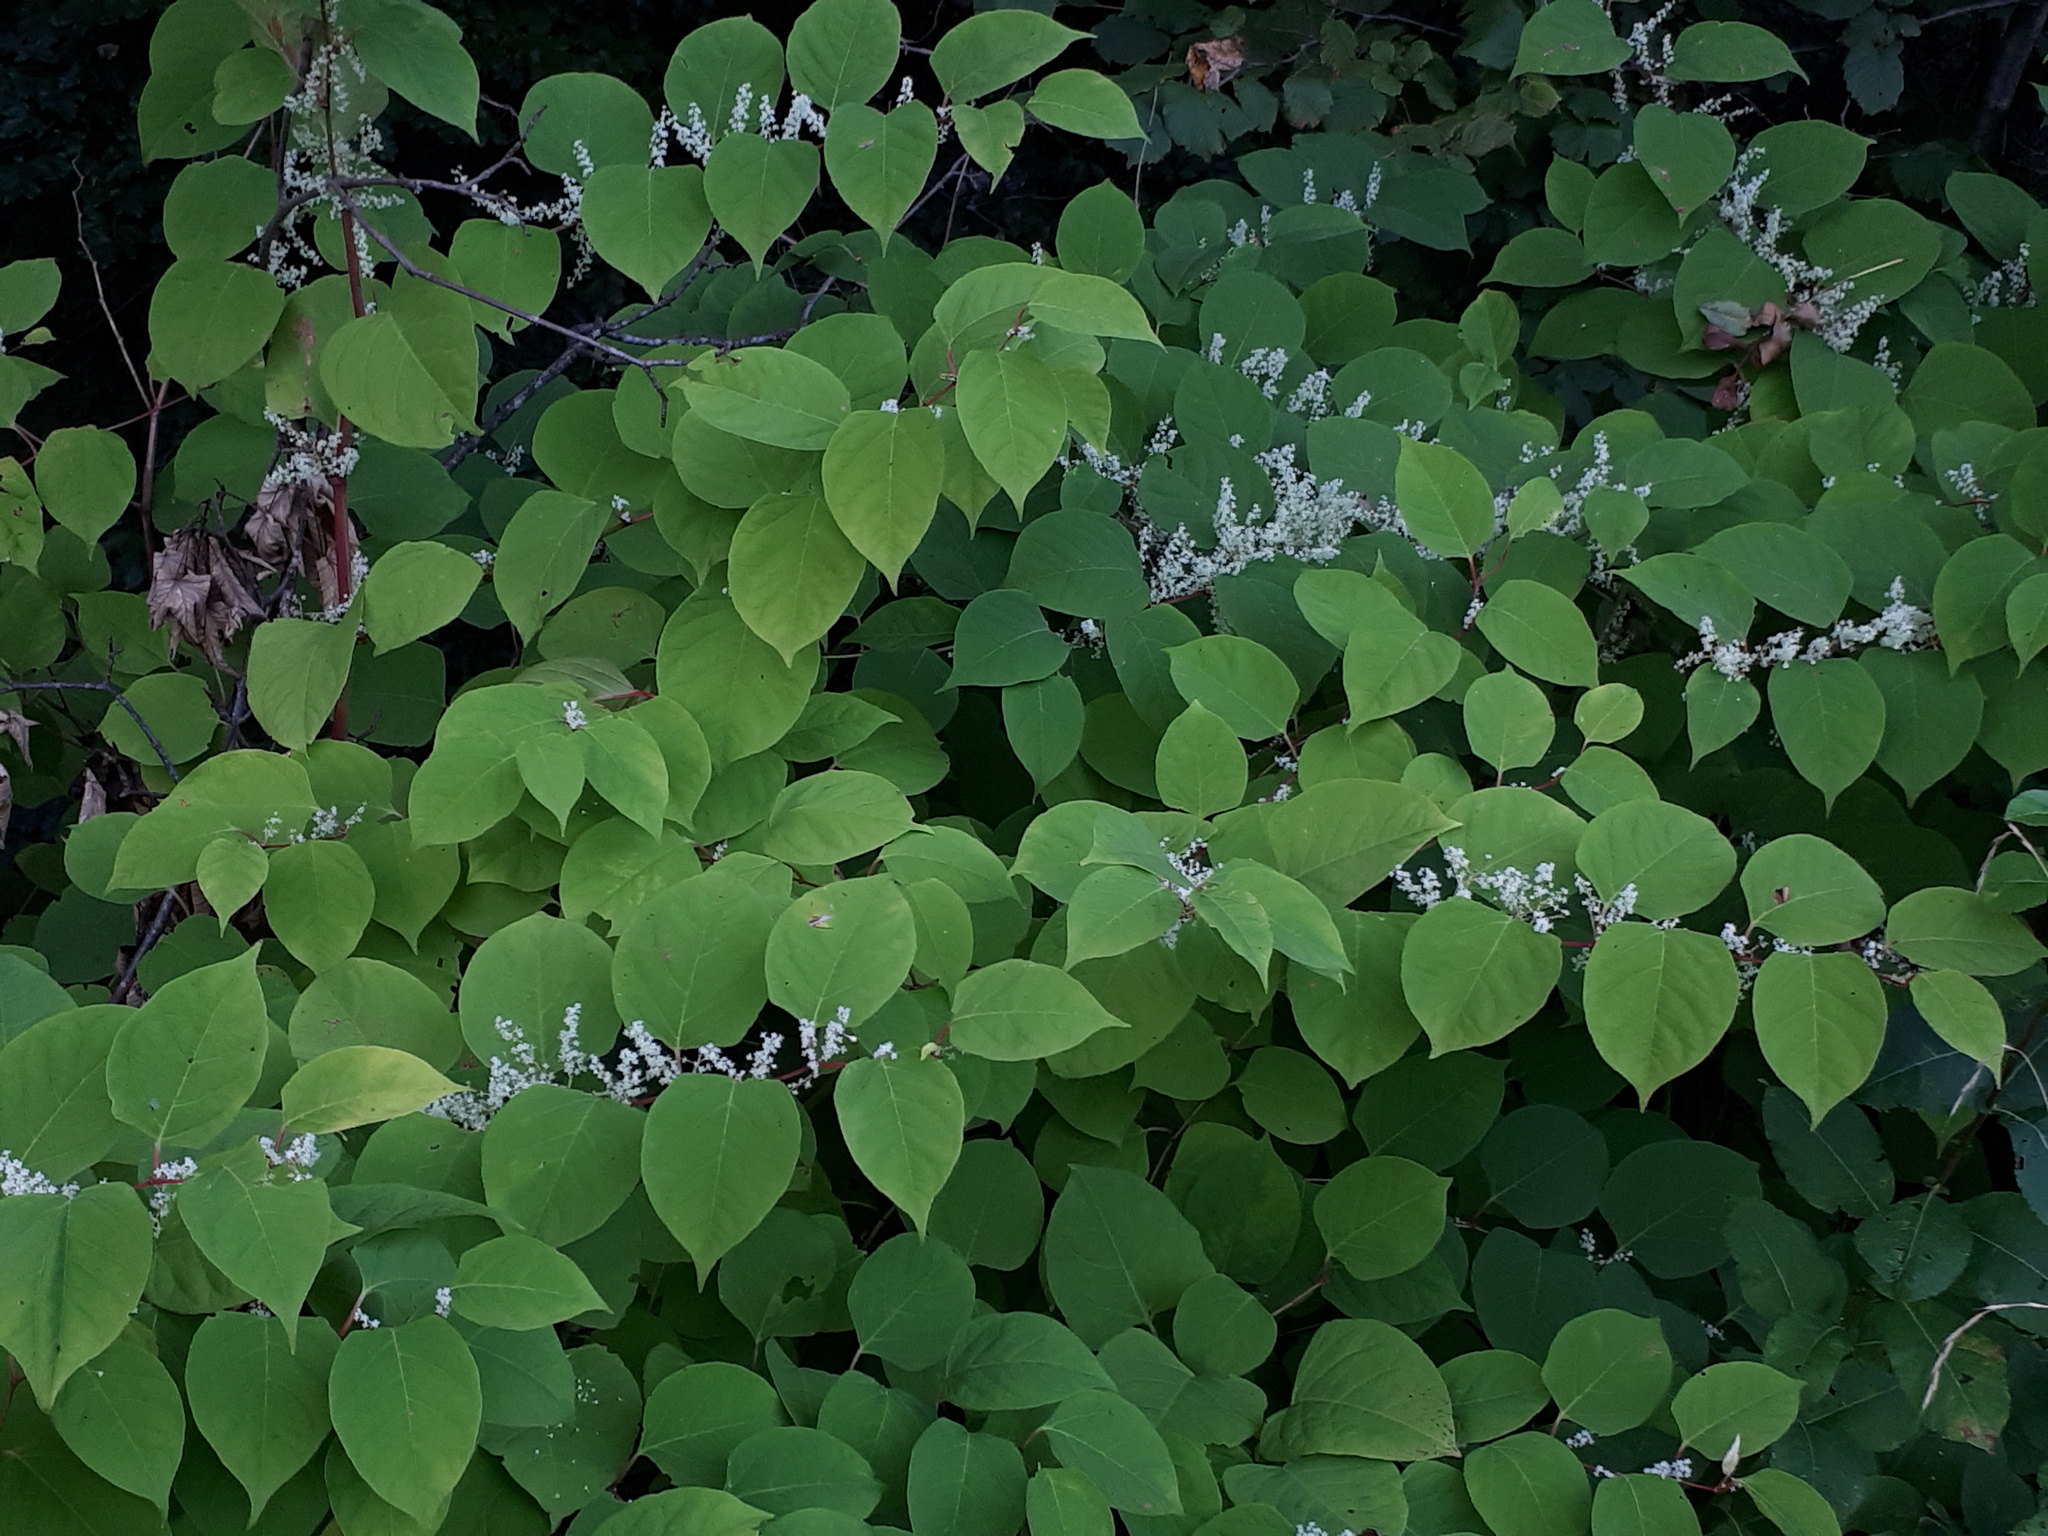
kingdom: Plantae
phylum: Tracheophyta
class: Magnoliopsida
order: Caryophyllales
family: Polygonaceae
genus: Reynoutria
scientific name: Reynoutria japonica
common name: Japanese knotweed
